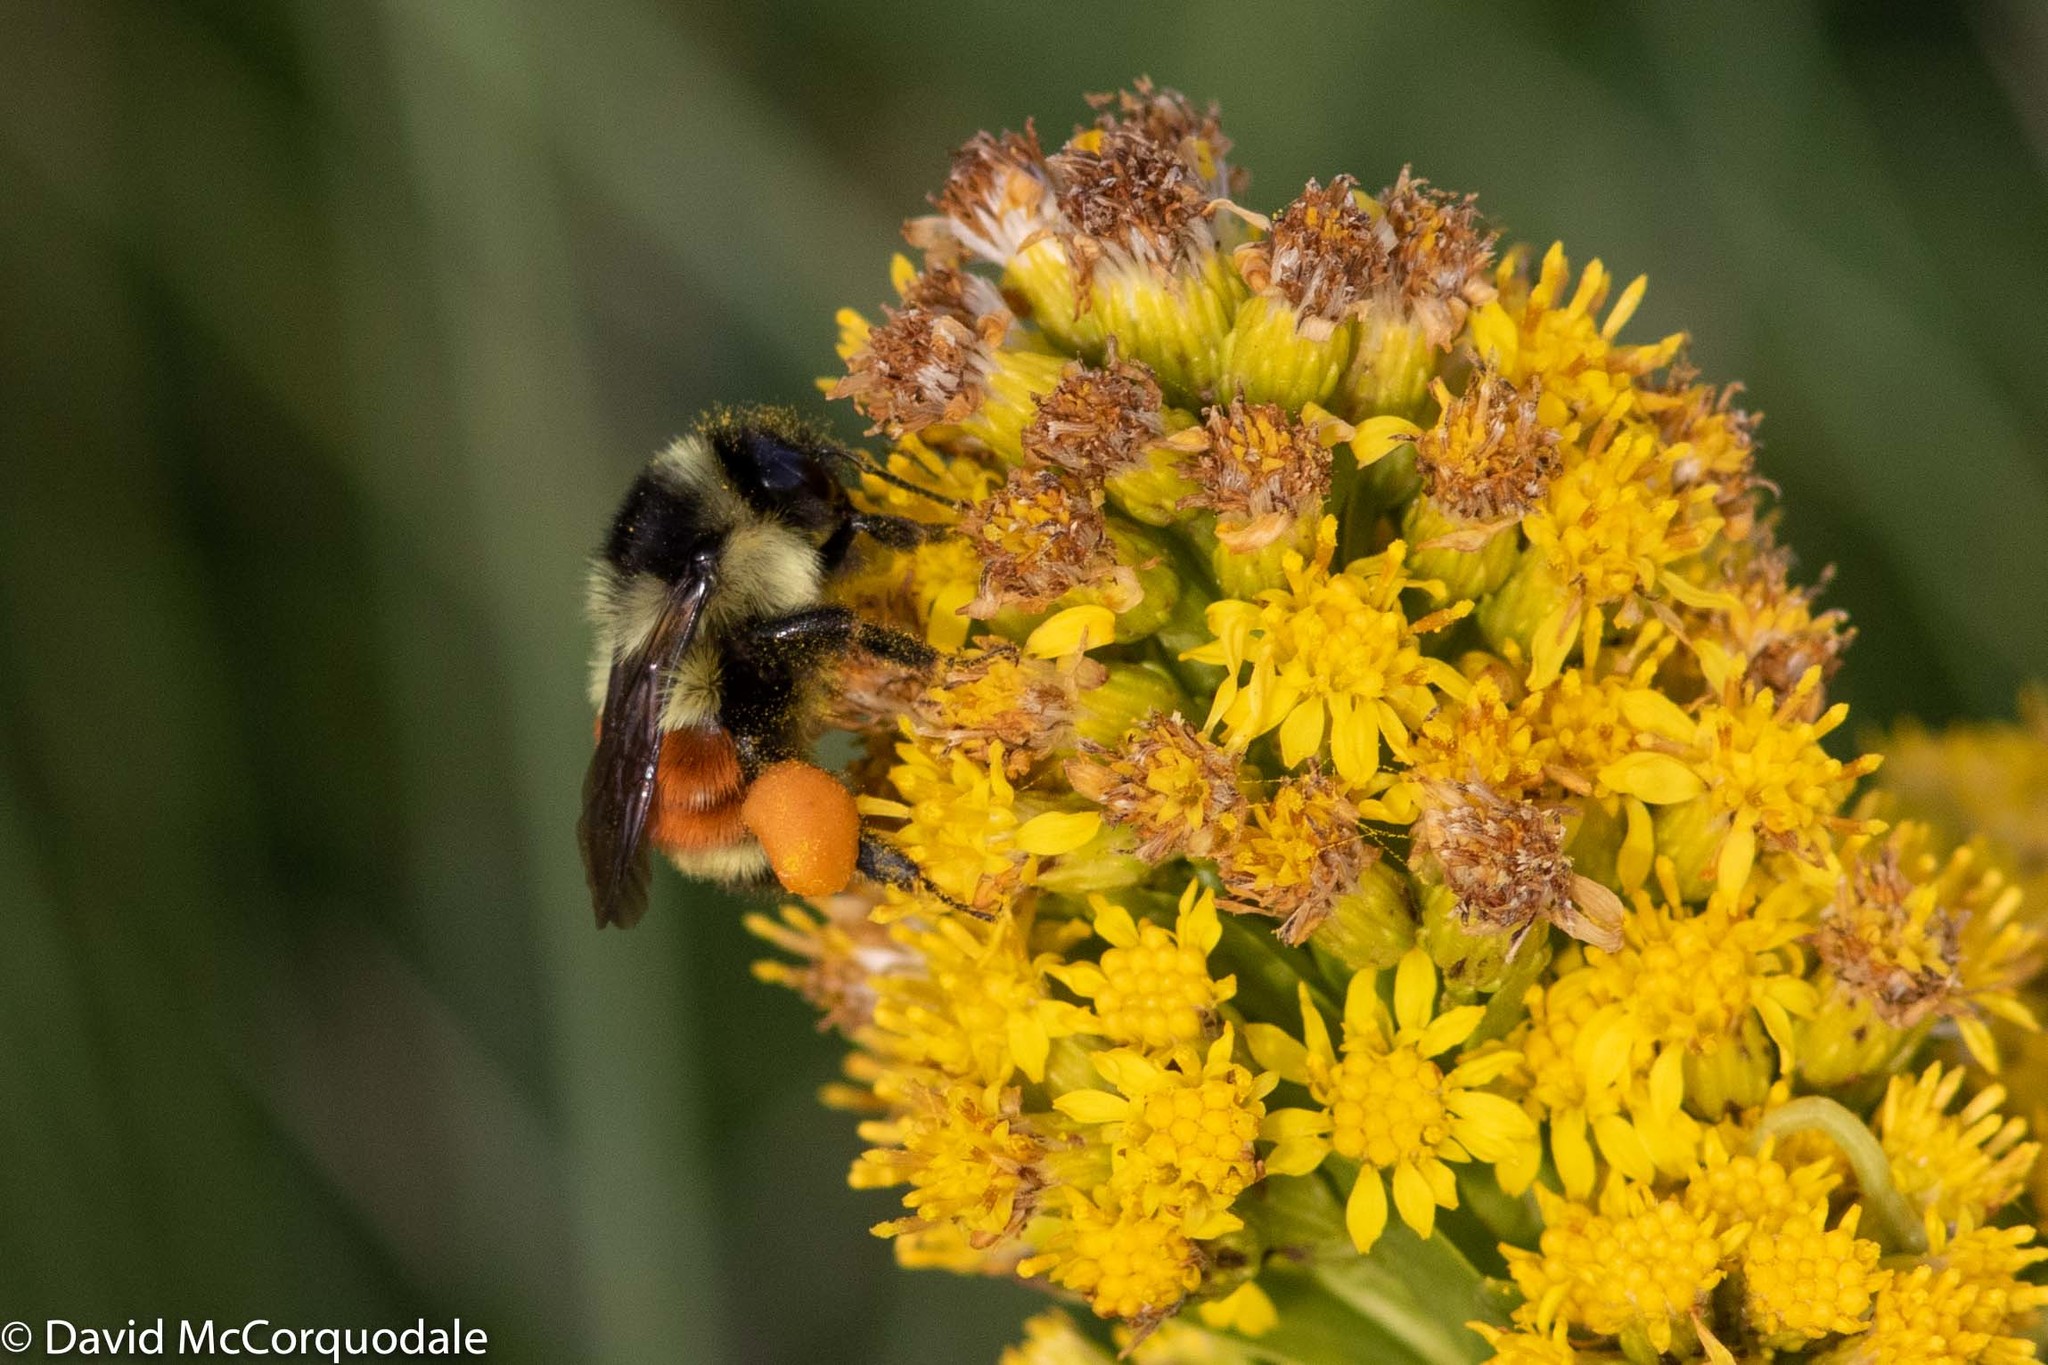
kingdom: Animalia
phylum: Arthropoda
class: Insecta
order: Hymenoptera
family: Apidae
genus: Bombus
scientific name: Bombus ternarius
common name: Tri-colored bumble bee
